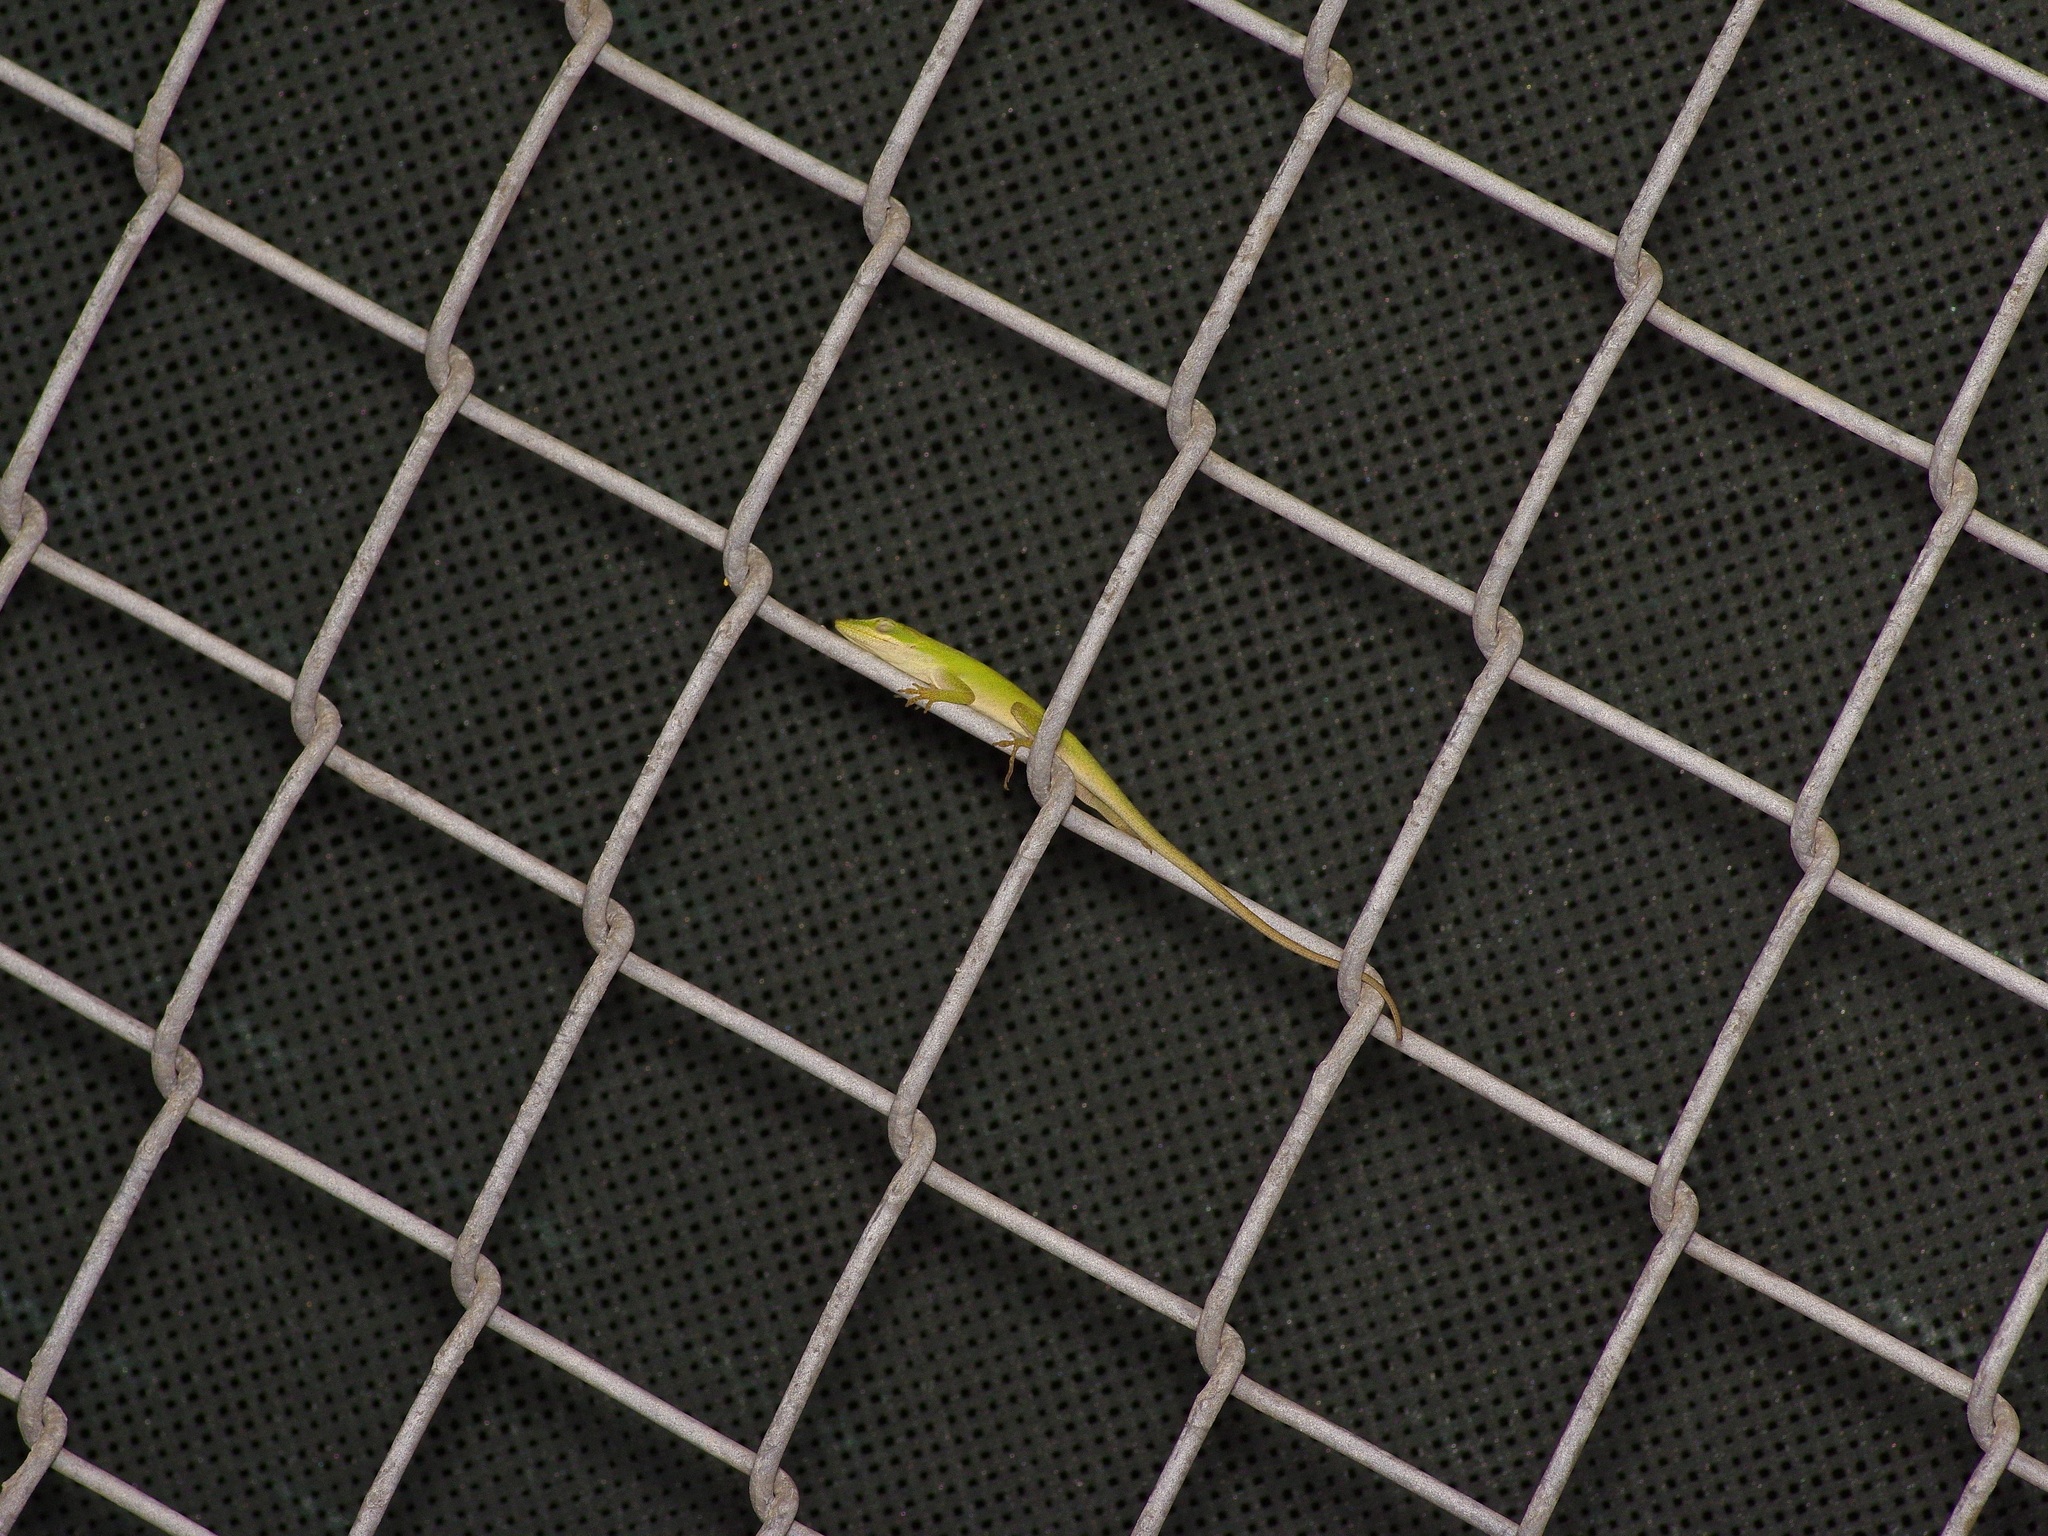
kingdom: Animalia
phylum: Chordata
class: Squamata
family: Dactyloidae
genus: Anolis
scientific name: Anolis carolinensis
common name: Green anole
